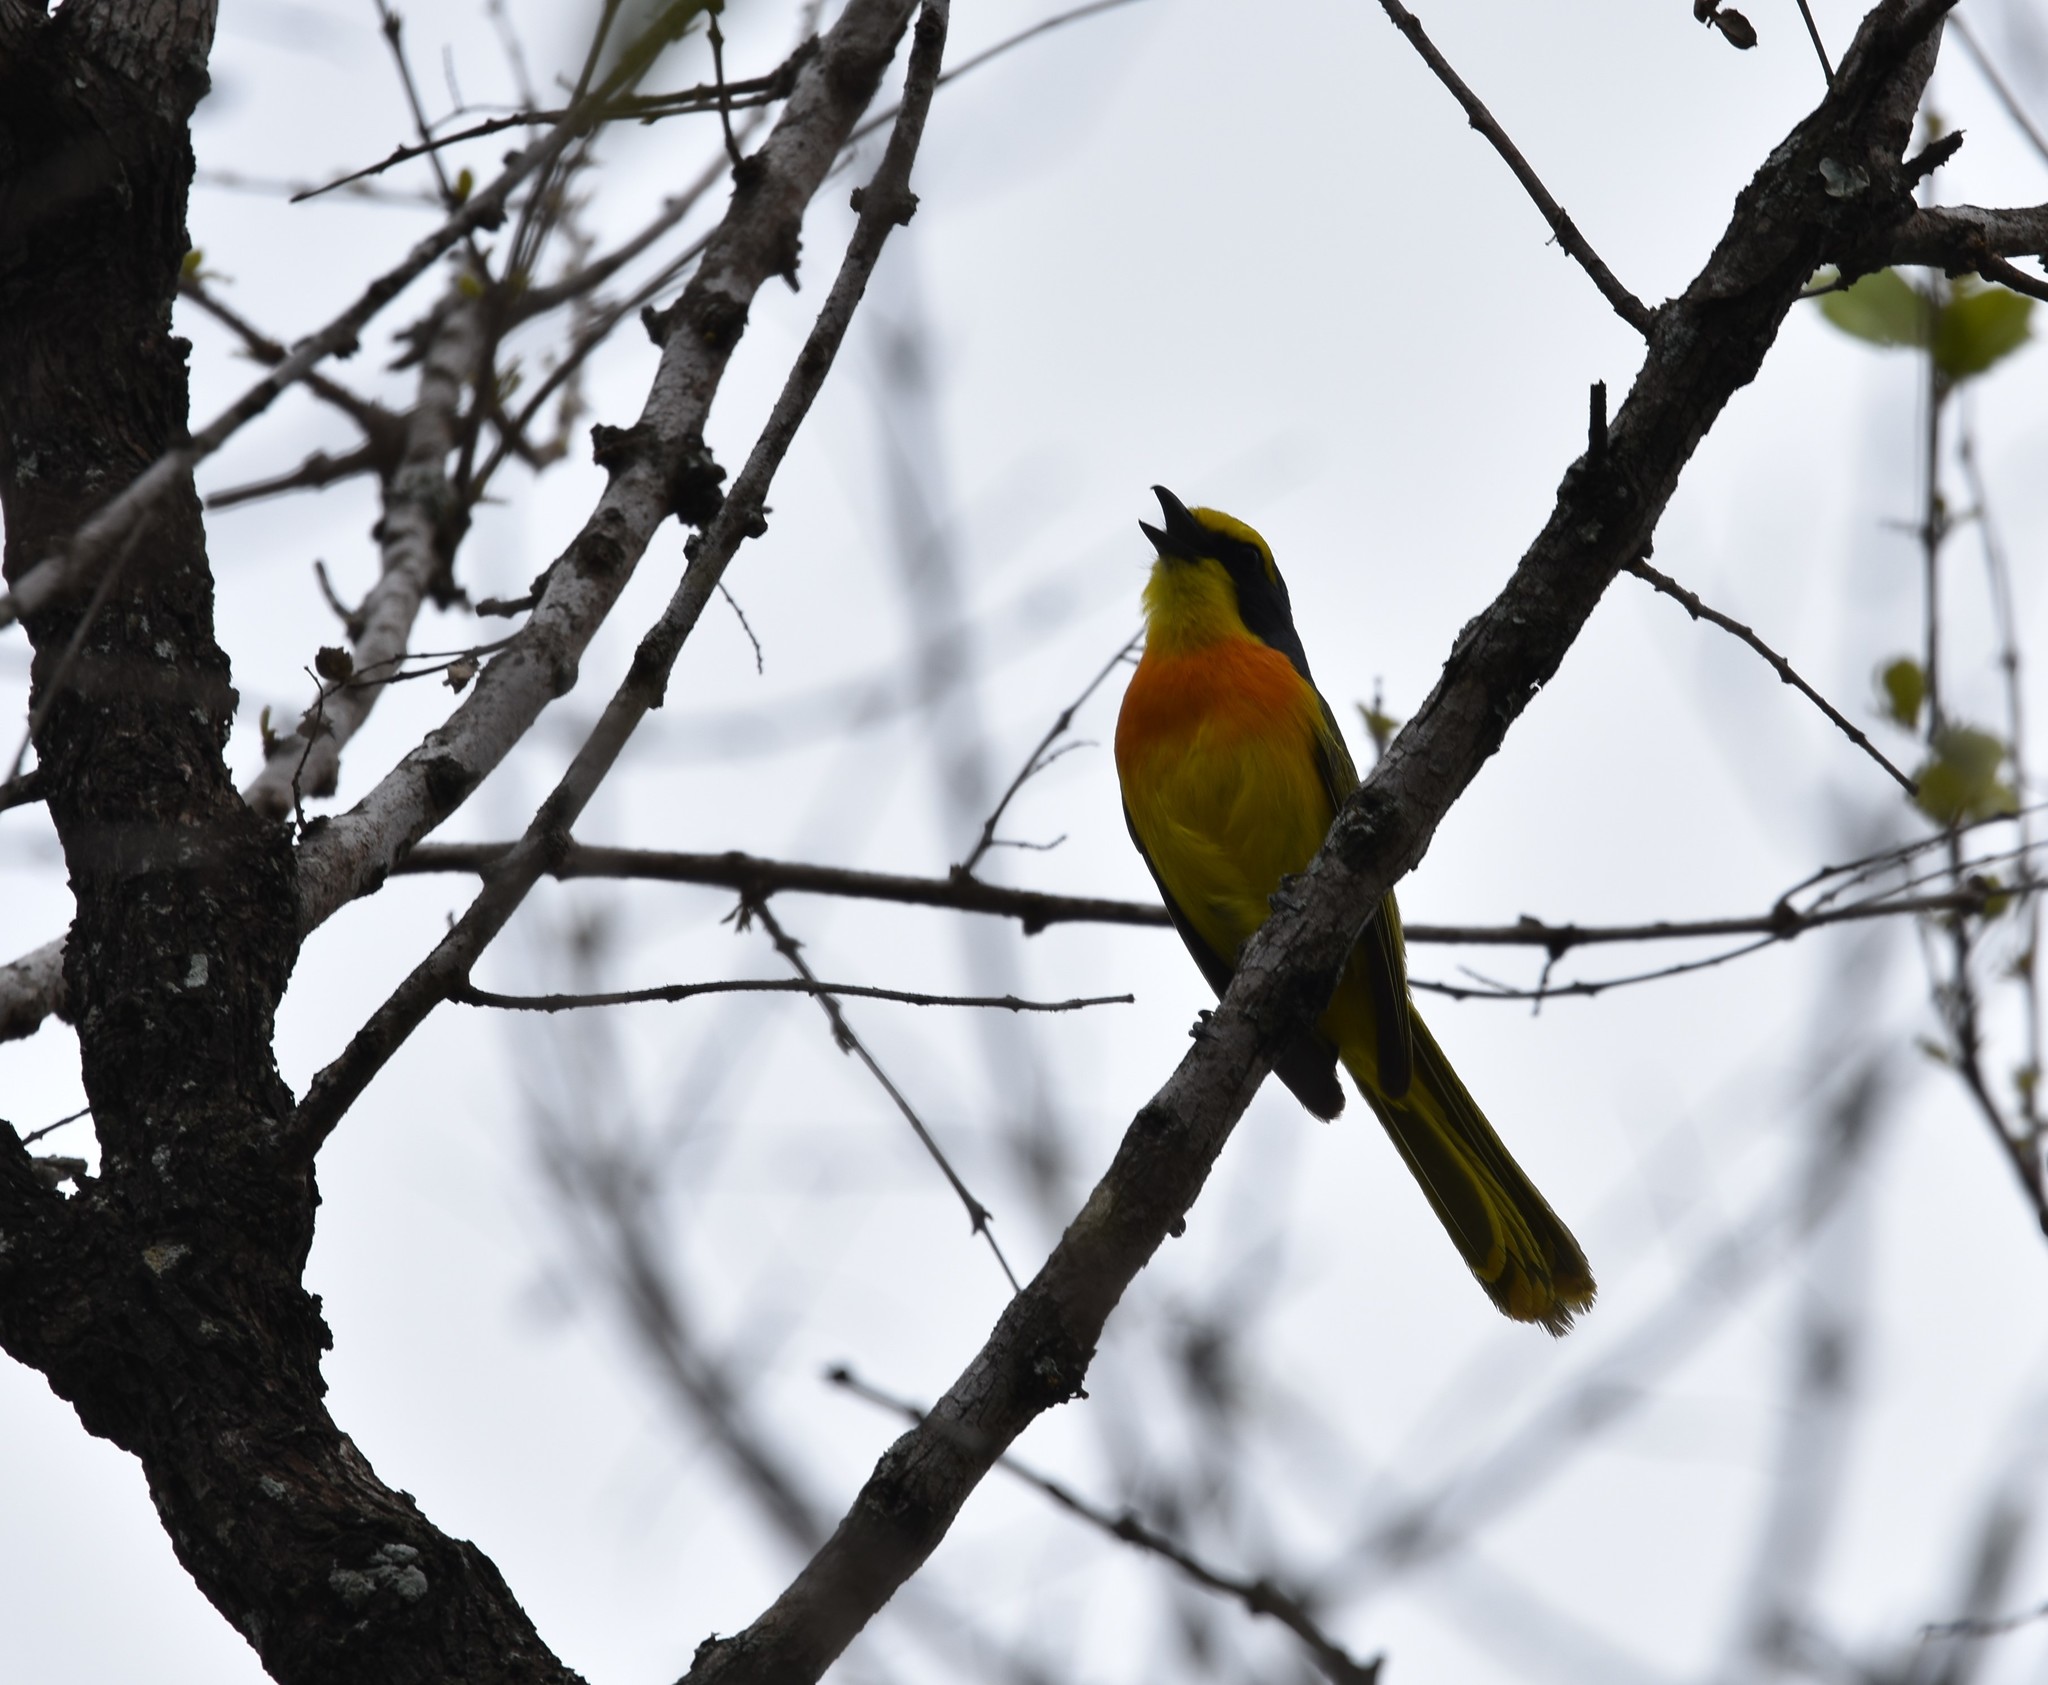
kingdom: Animalia
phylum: Chordata
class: Aves
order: Passeriformes
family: Malaconotidae
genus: Chlorophoneus
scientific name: Chlorophoneus sulfureopectus
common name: Orange-breasted bushshrike
